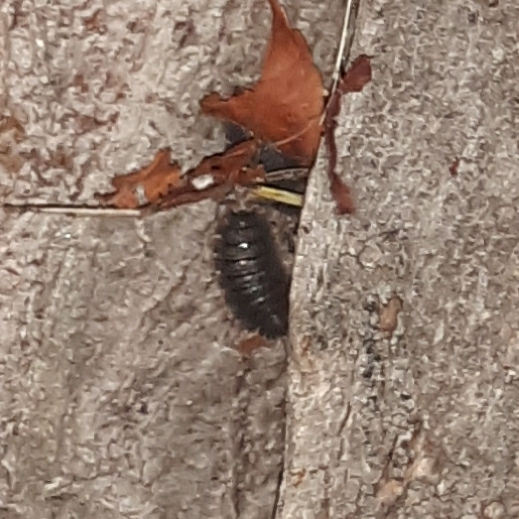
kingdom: Animalia
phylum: Arthropoda
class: Malacostraca
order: Isopoda
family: Porcellionidae
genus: Porcellio
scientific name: Porcellio scaber
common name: Common rough woodlouse
